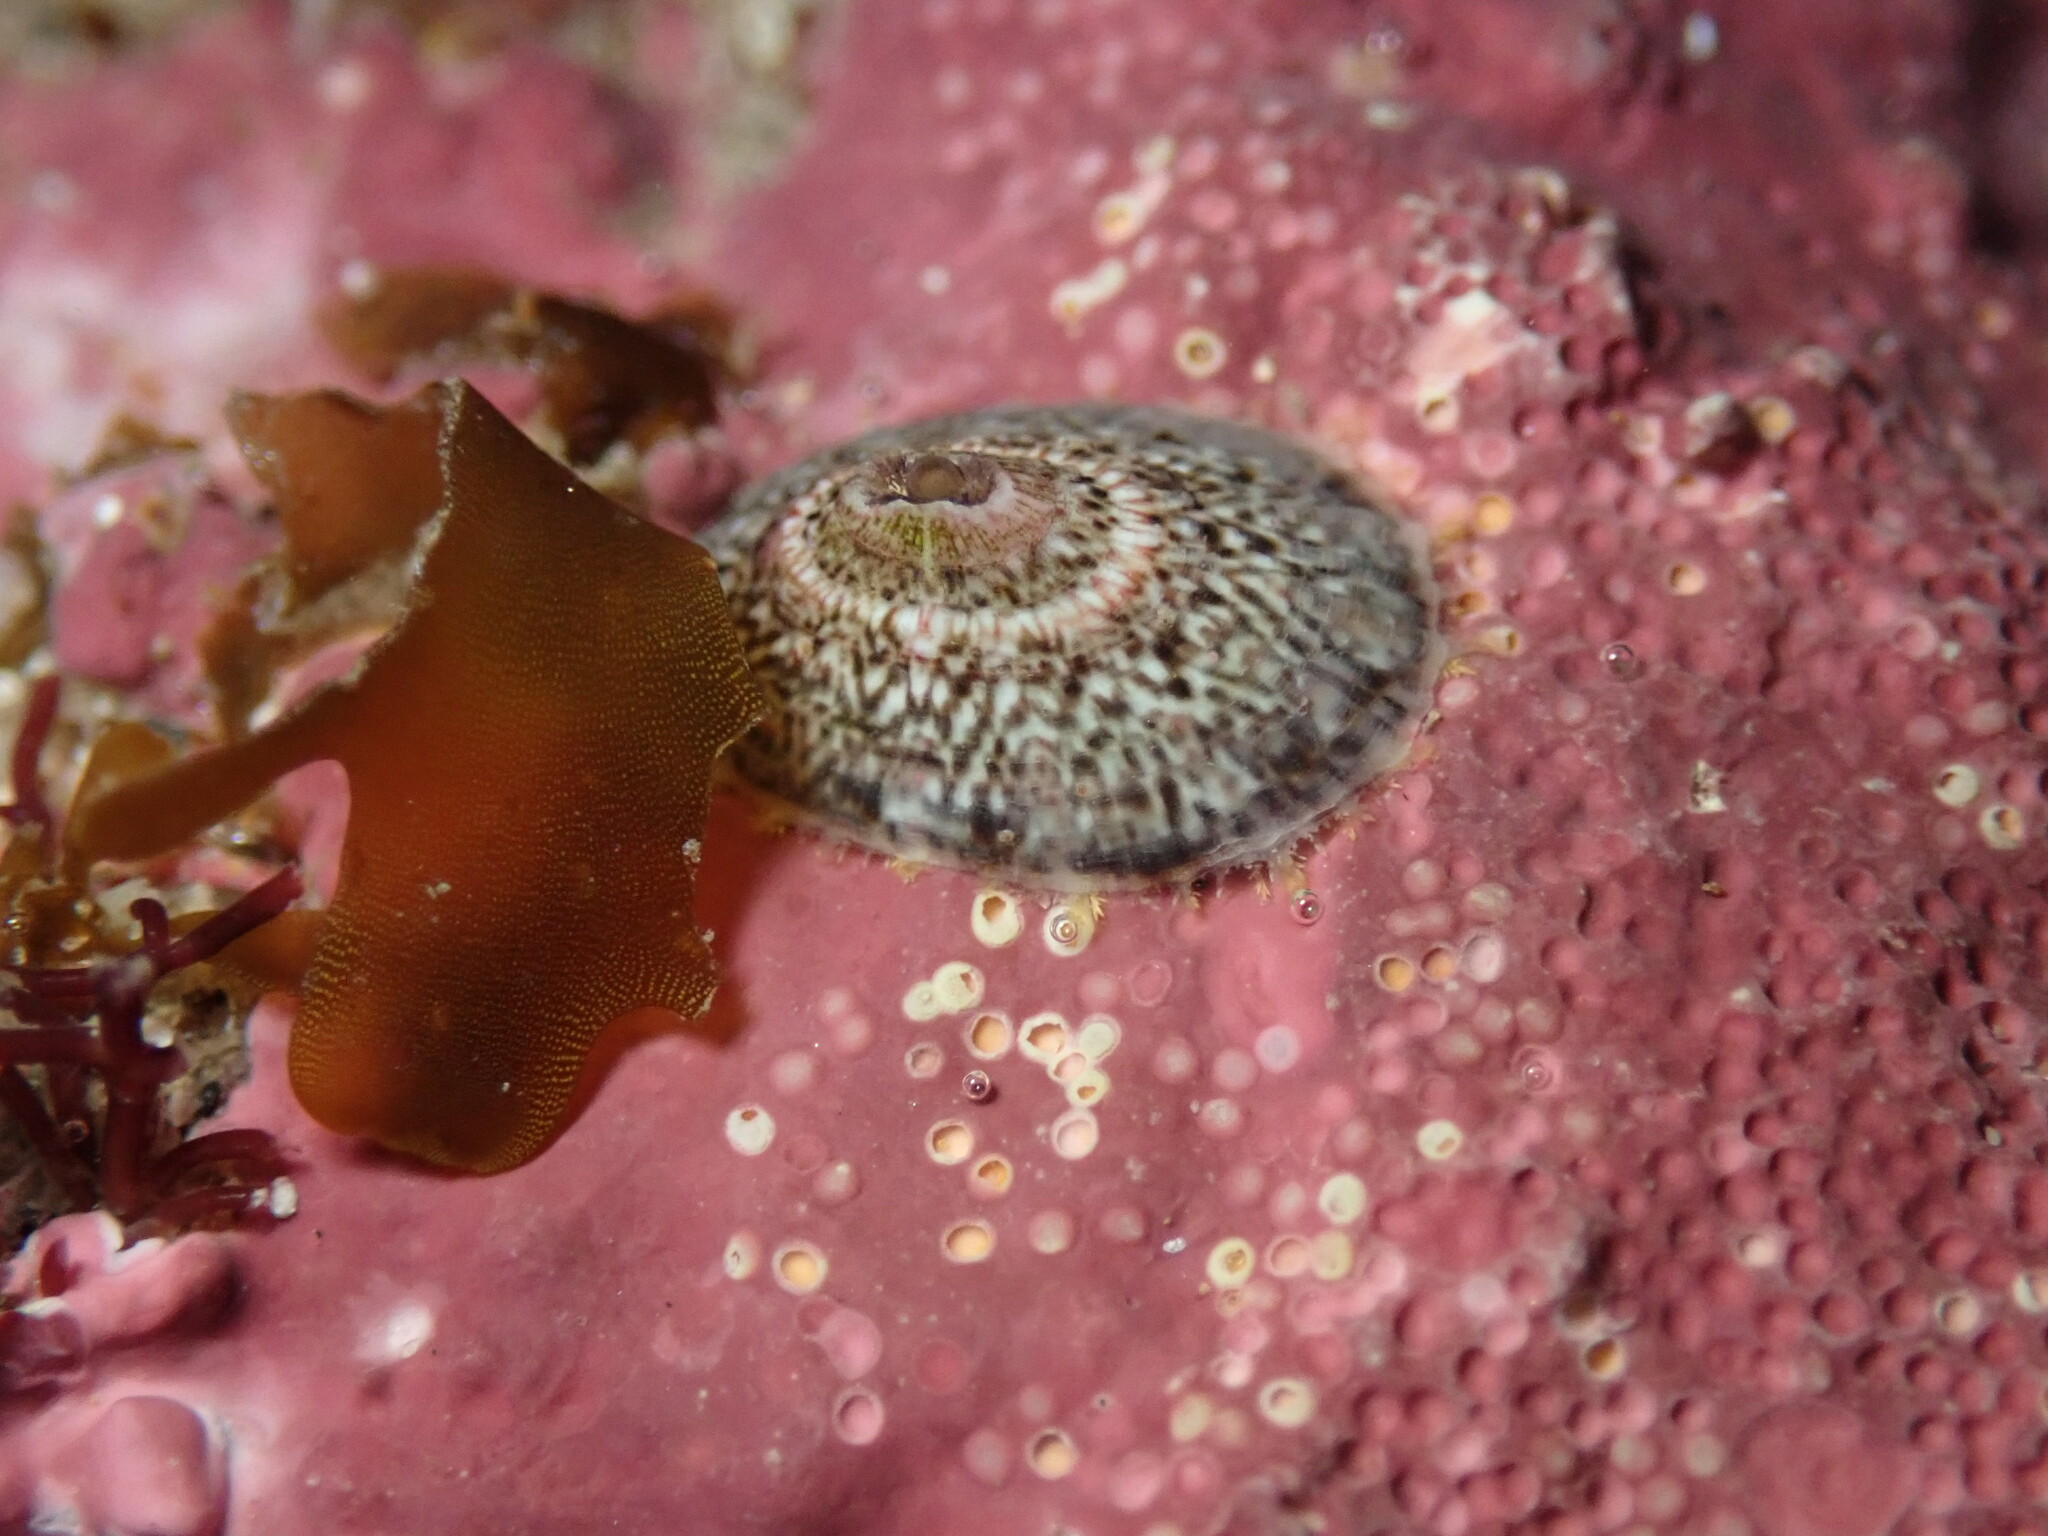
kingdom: Animalia
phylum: Mollusca
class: Gastropoda
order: Lepetellida
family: Fissurellidae
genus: Fissurella
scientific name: Fissurella volcano
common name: Volcano keyhole limpet
